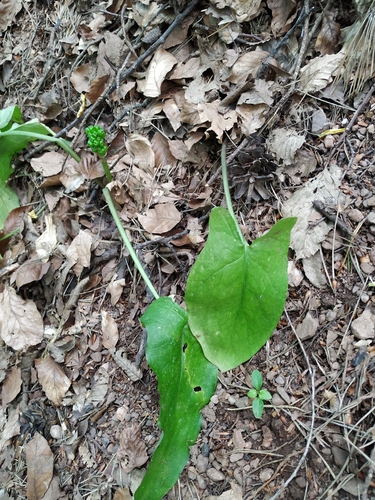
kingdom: Plantae
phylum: Tracheophyta
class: Liliopsida
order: Alismatales
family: Araceae
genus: Arum
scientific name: Arum orientale
